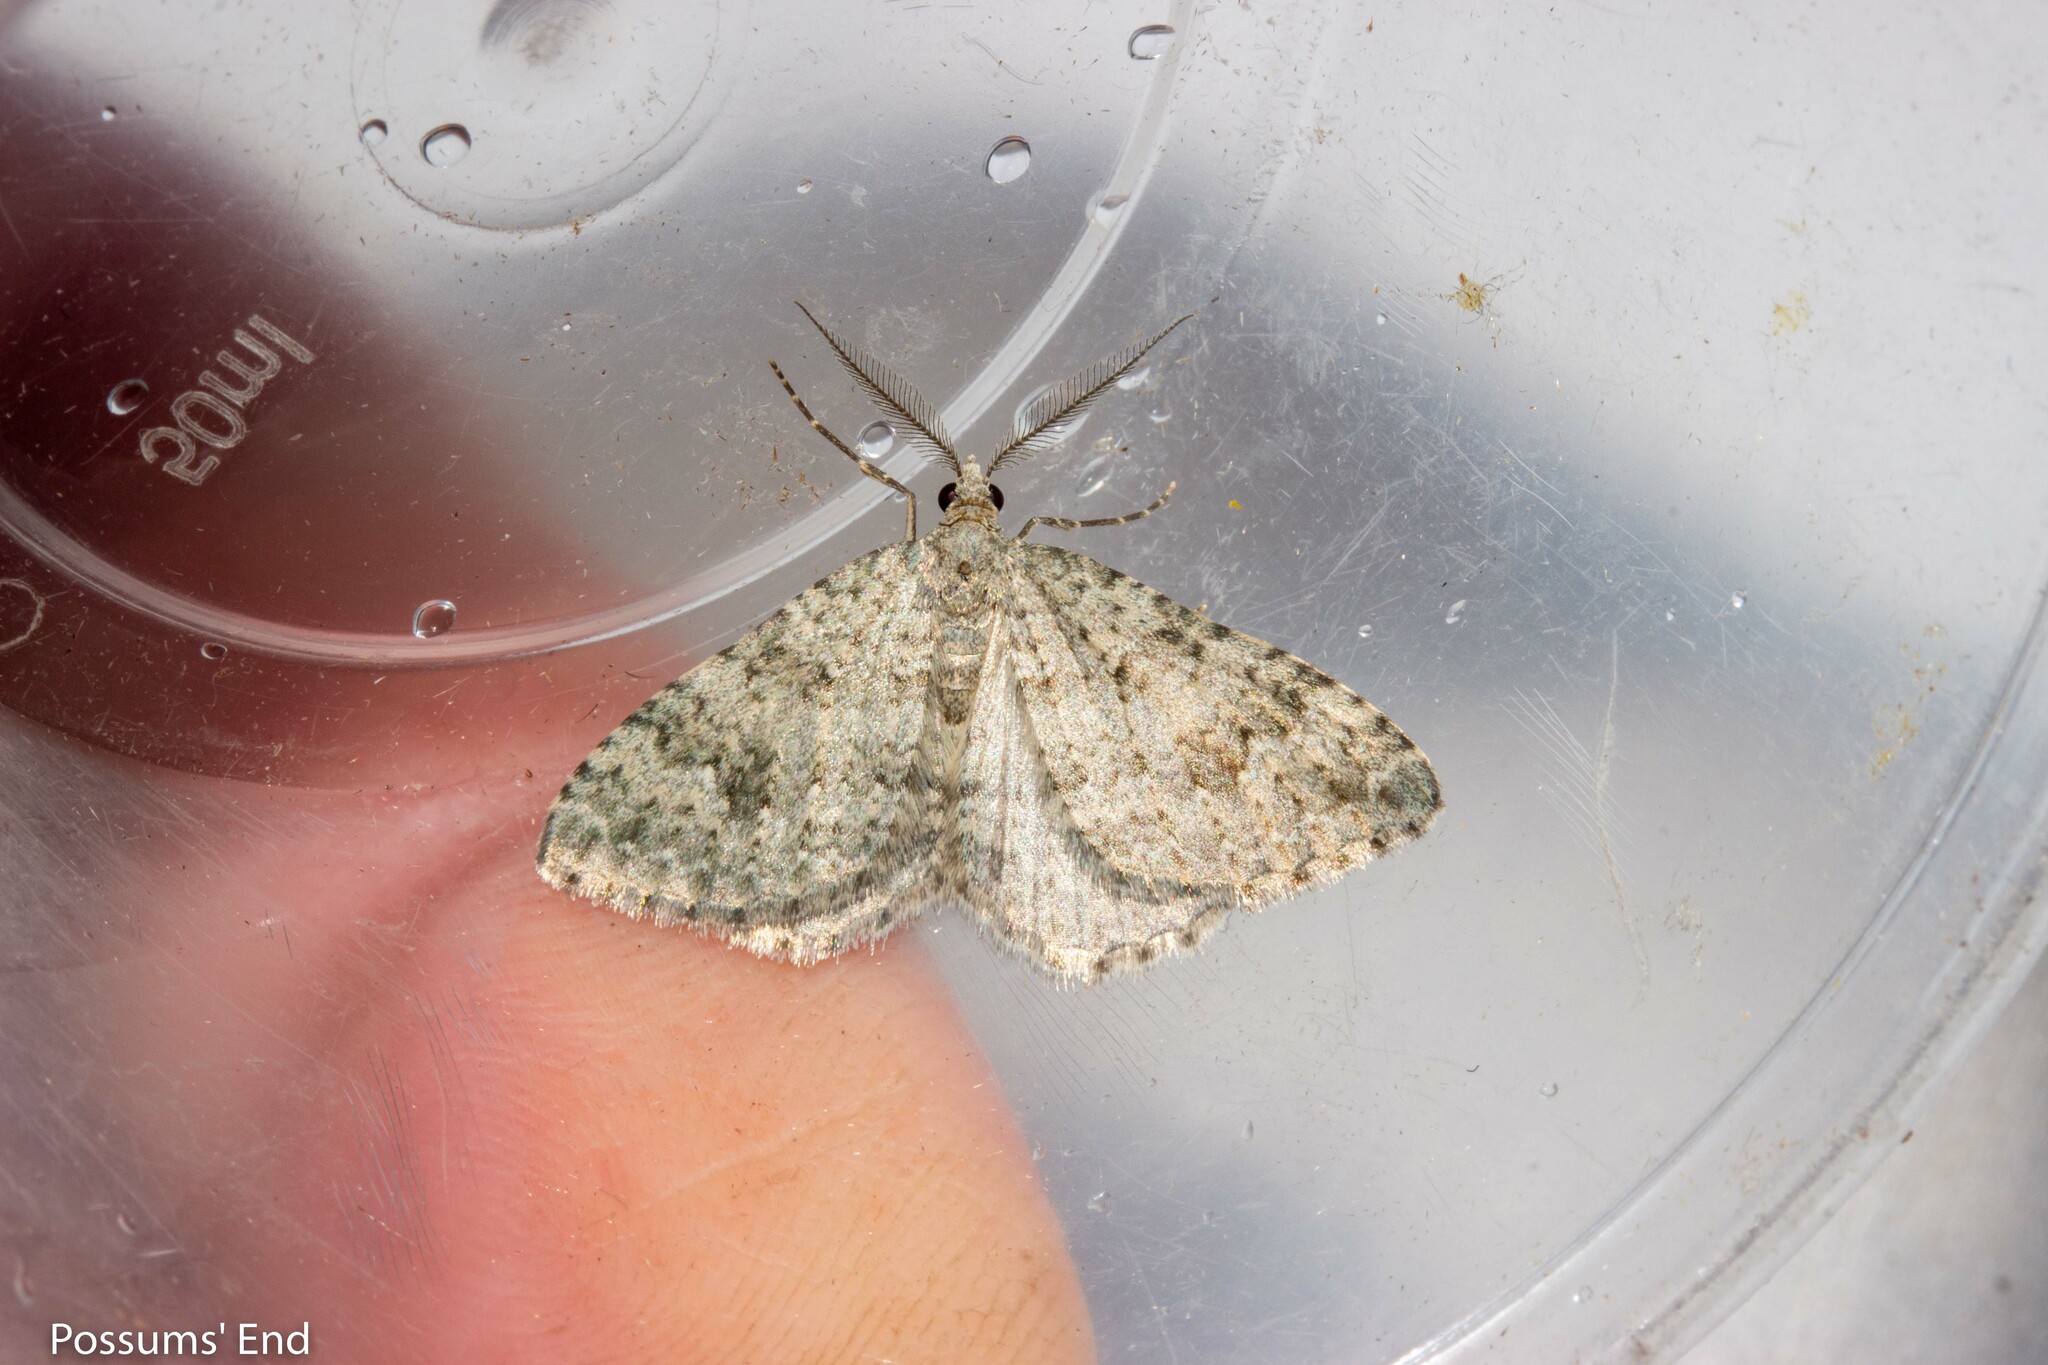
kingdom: Animalia
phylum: Arthropoda
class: Insecta
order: Lepidoptera
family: Geometridae
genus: Helastia
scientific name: Helastia corcularia
